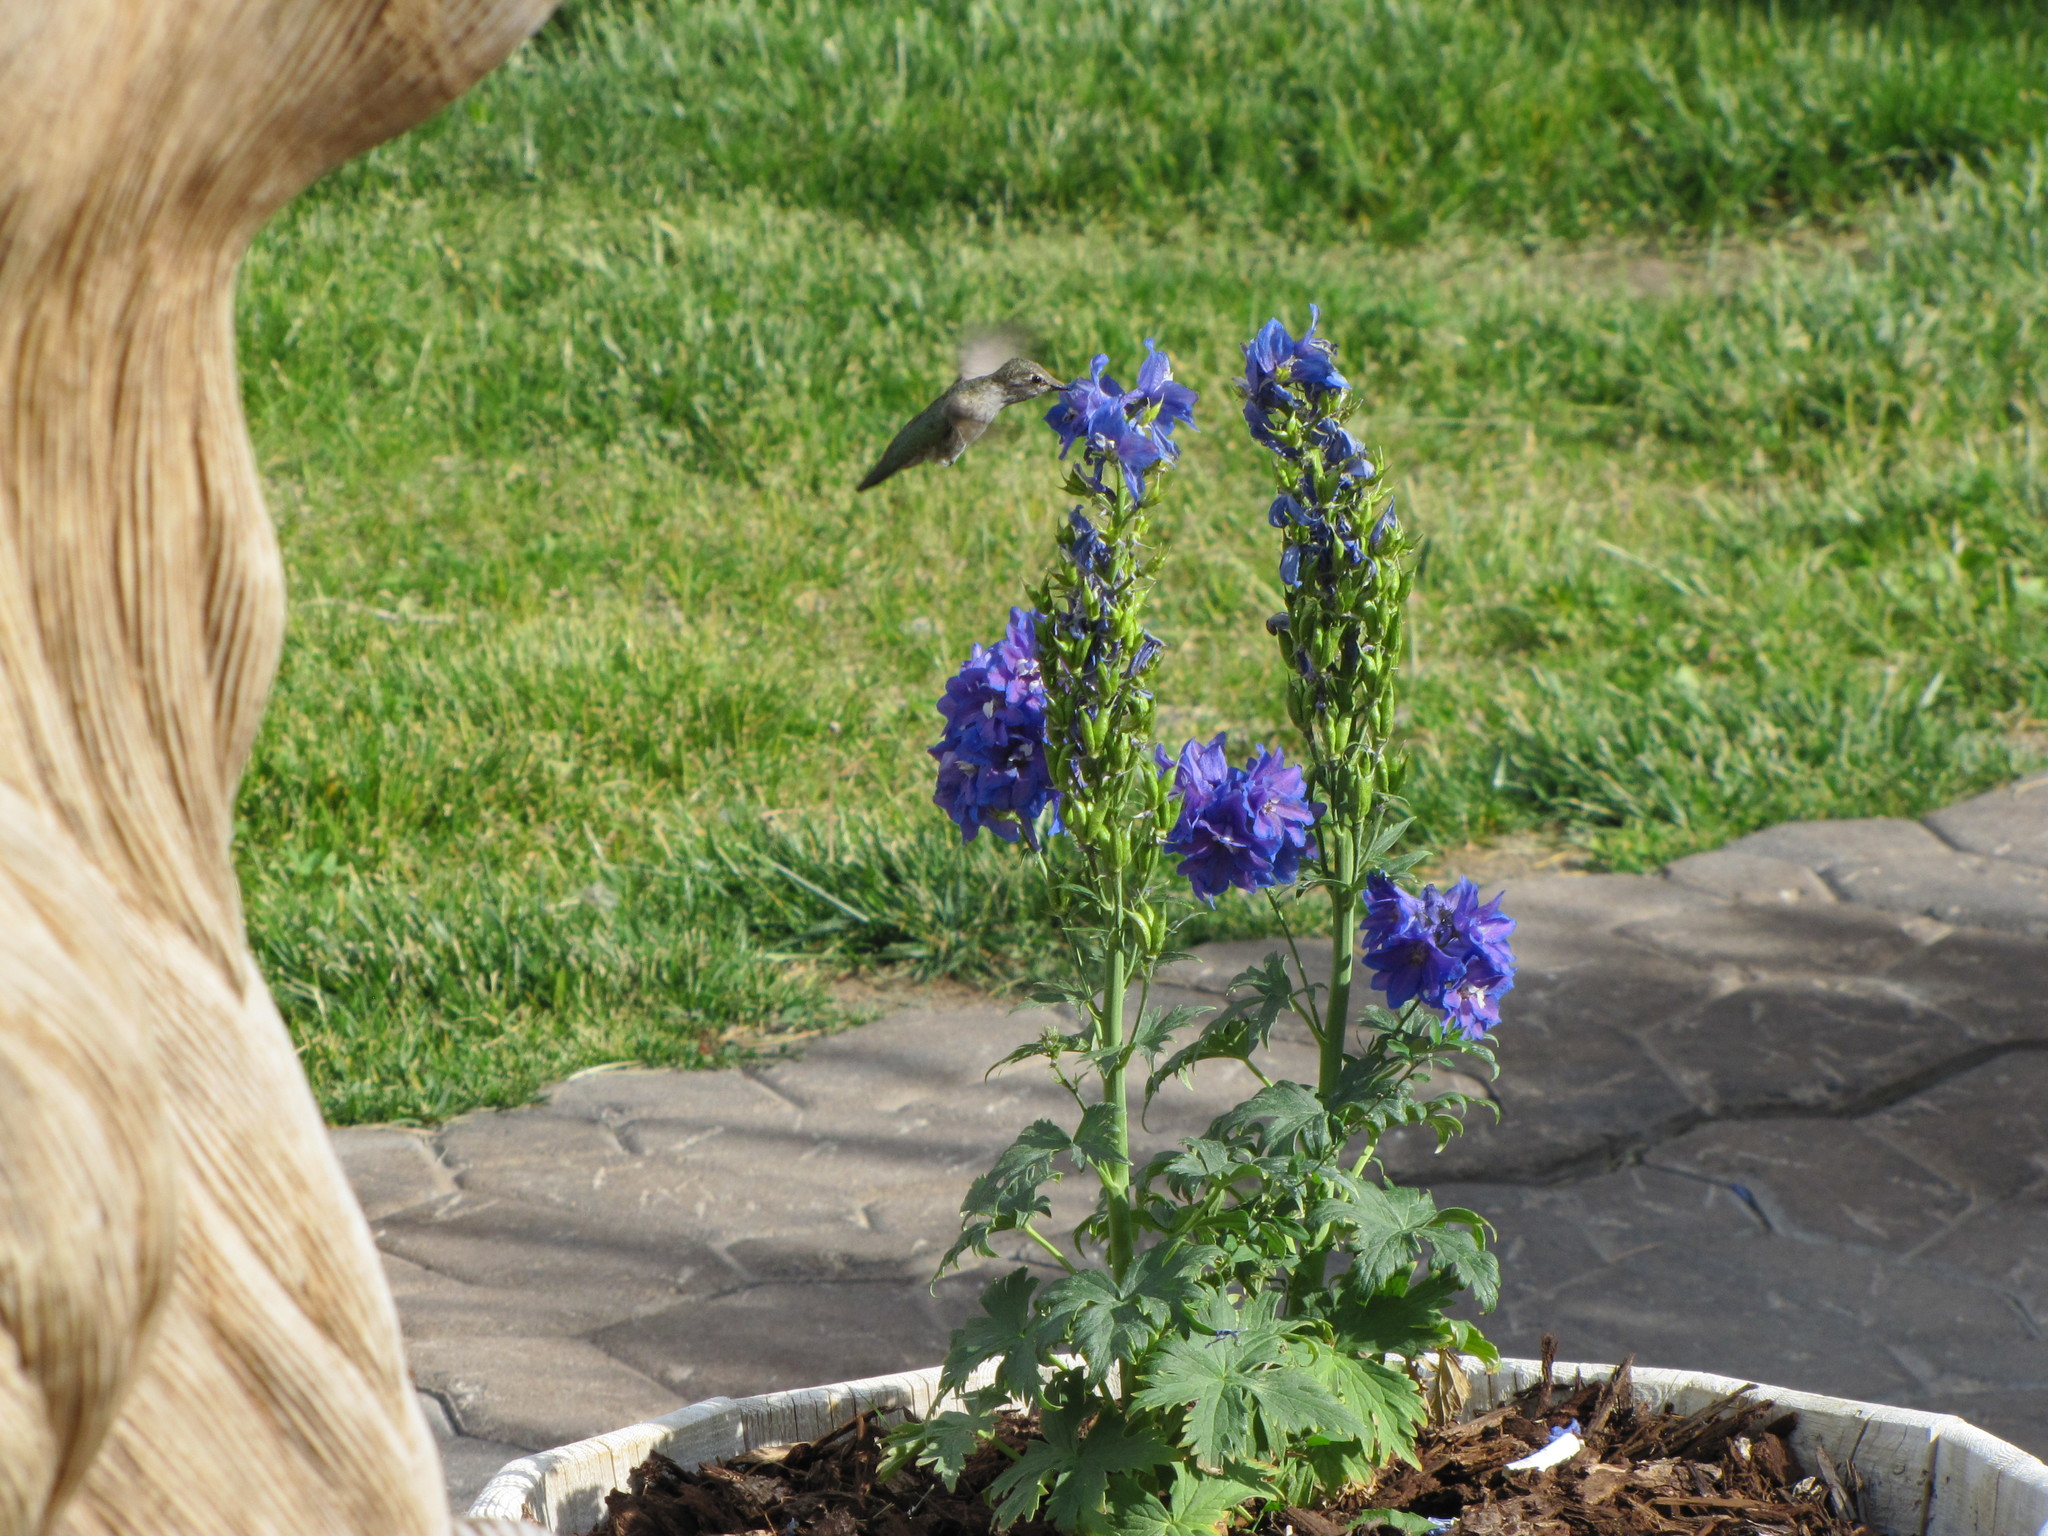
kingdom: Animalia
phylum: Chordata
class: Aves
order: Apodiformes
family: Trochilidae
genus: Calypte
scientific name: Calypte anna
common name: Anna's hummingbird
